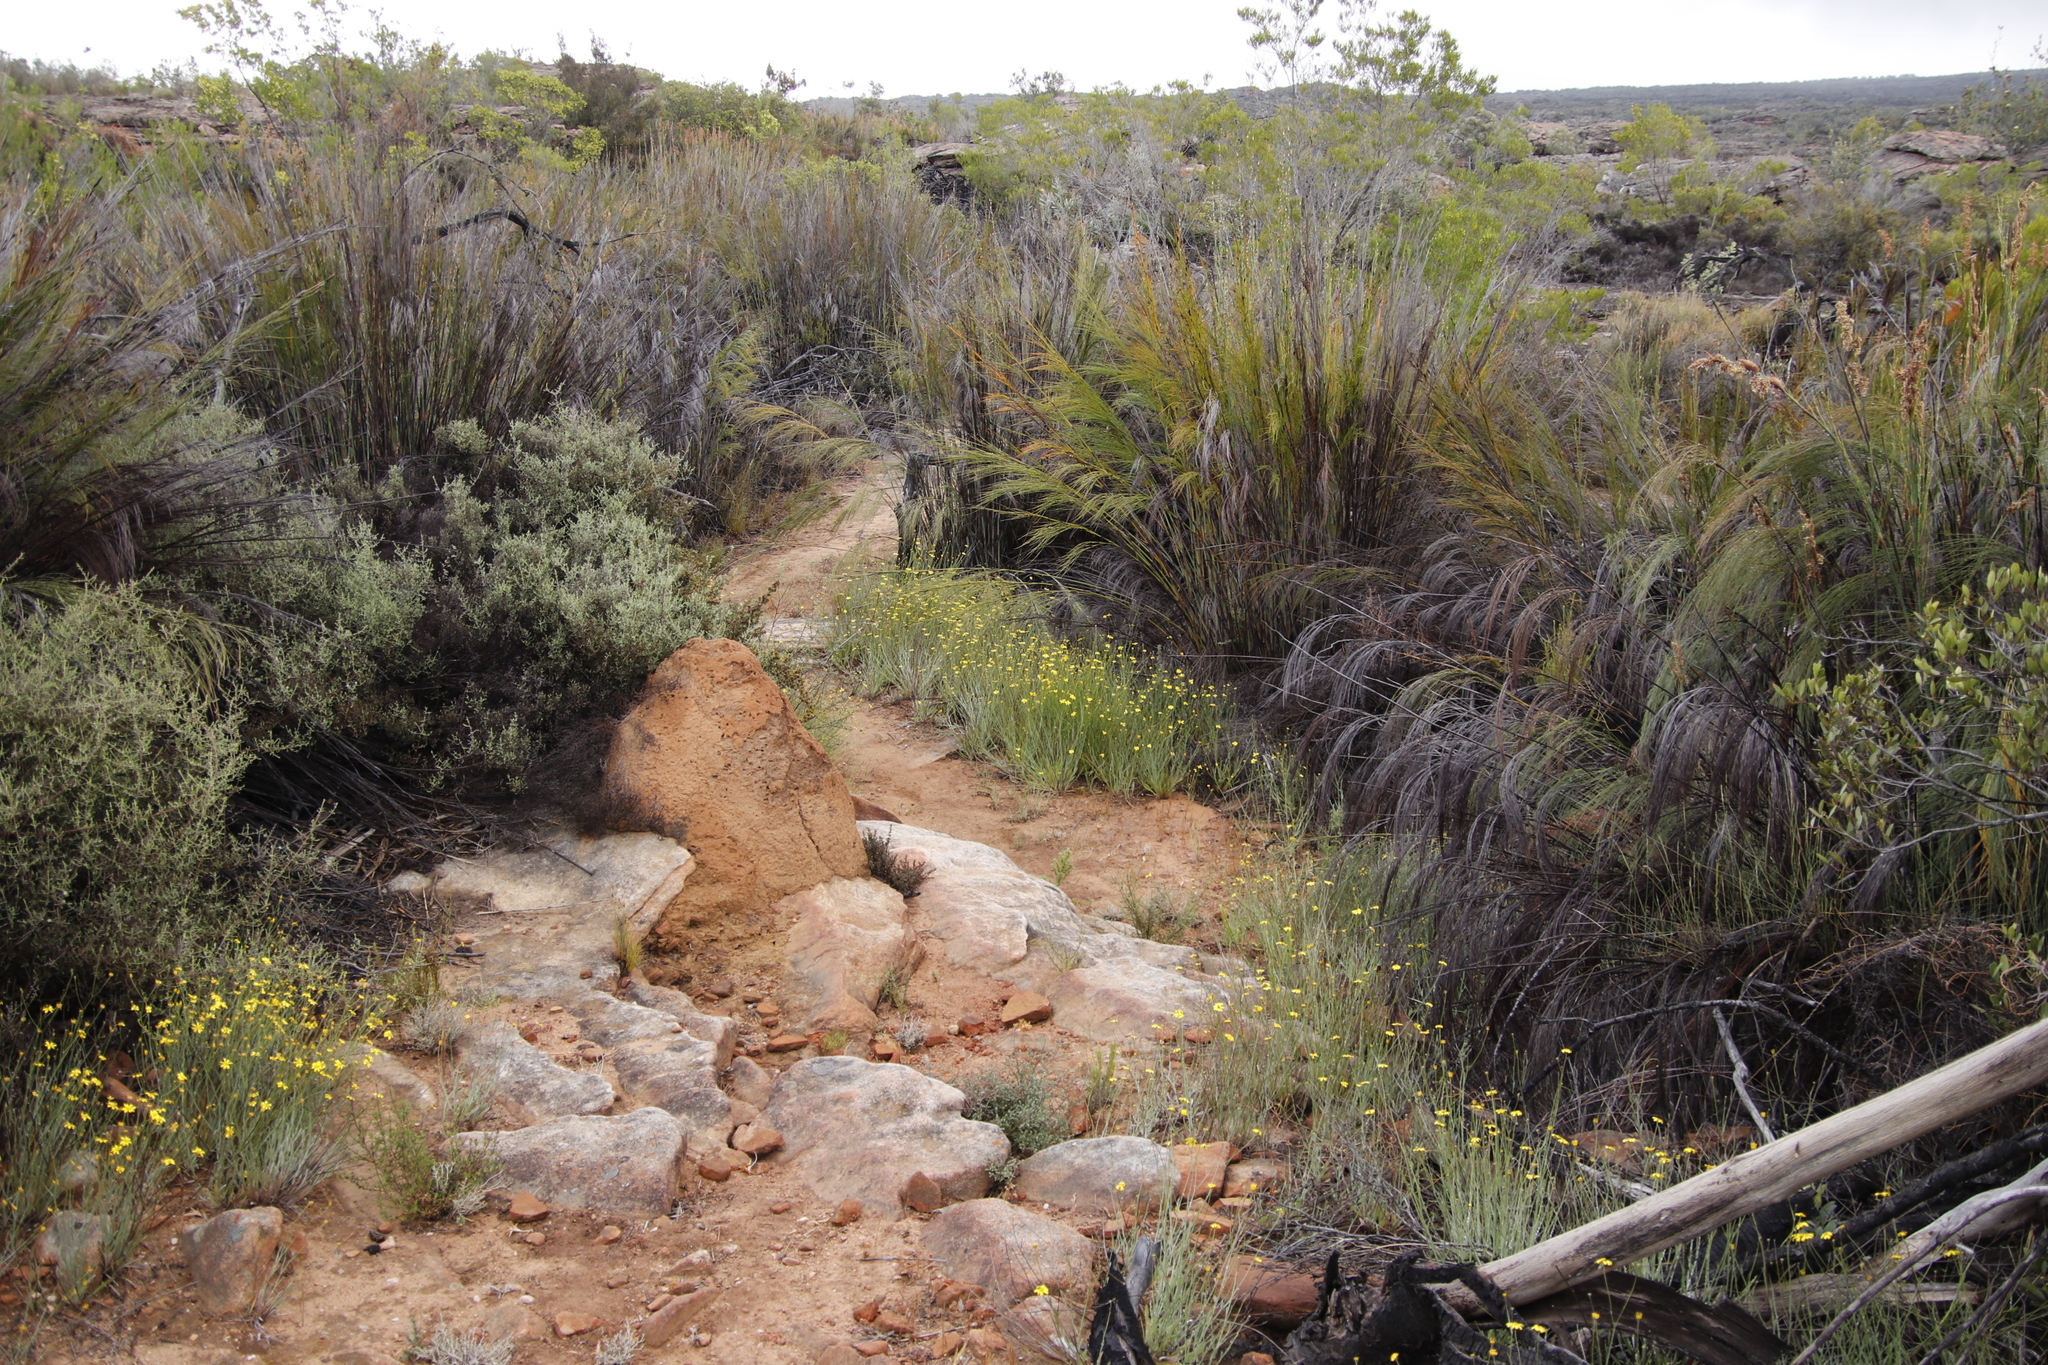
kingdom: Plantae
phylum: Tracheophyta
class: Liliopsida
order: Poales
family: Restionaceae
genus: Cannomois
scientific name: Cannomois robusta
